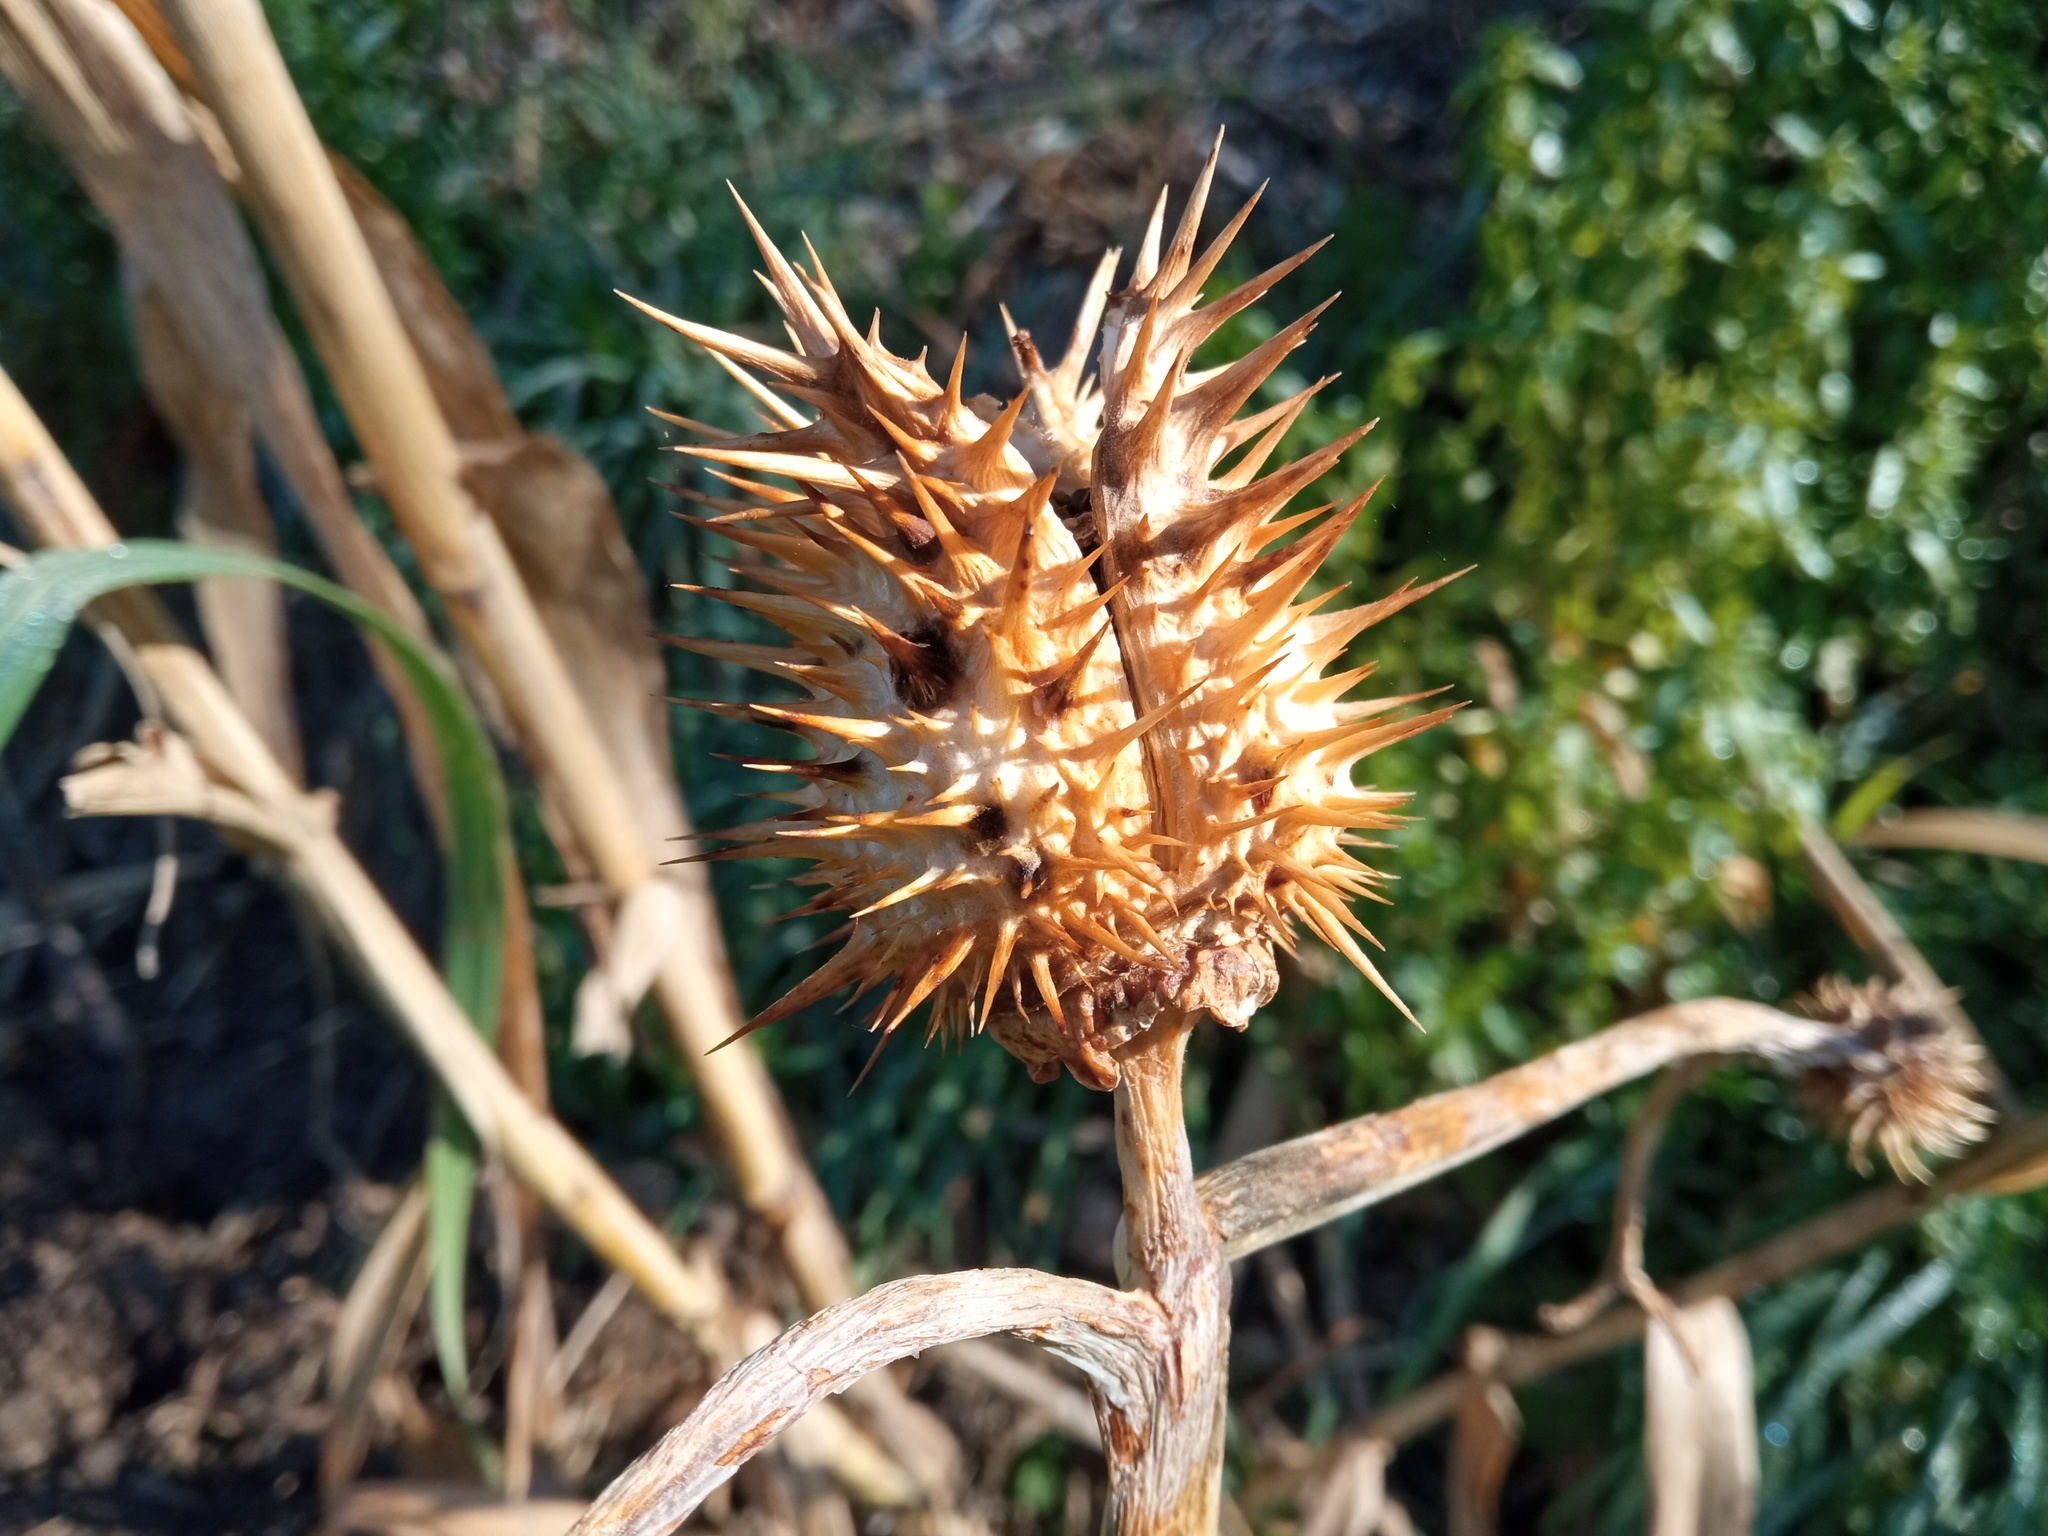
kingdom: Plantae
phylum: Tracheophyta
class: Magnoliopsida
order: Solanales
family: Solanaceae
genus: Datura
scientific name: Datura stramonium
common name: Thorn-apple
